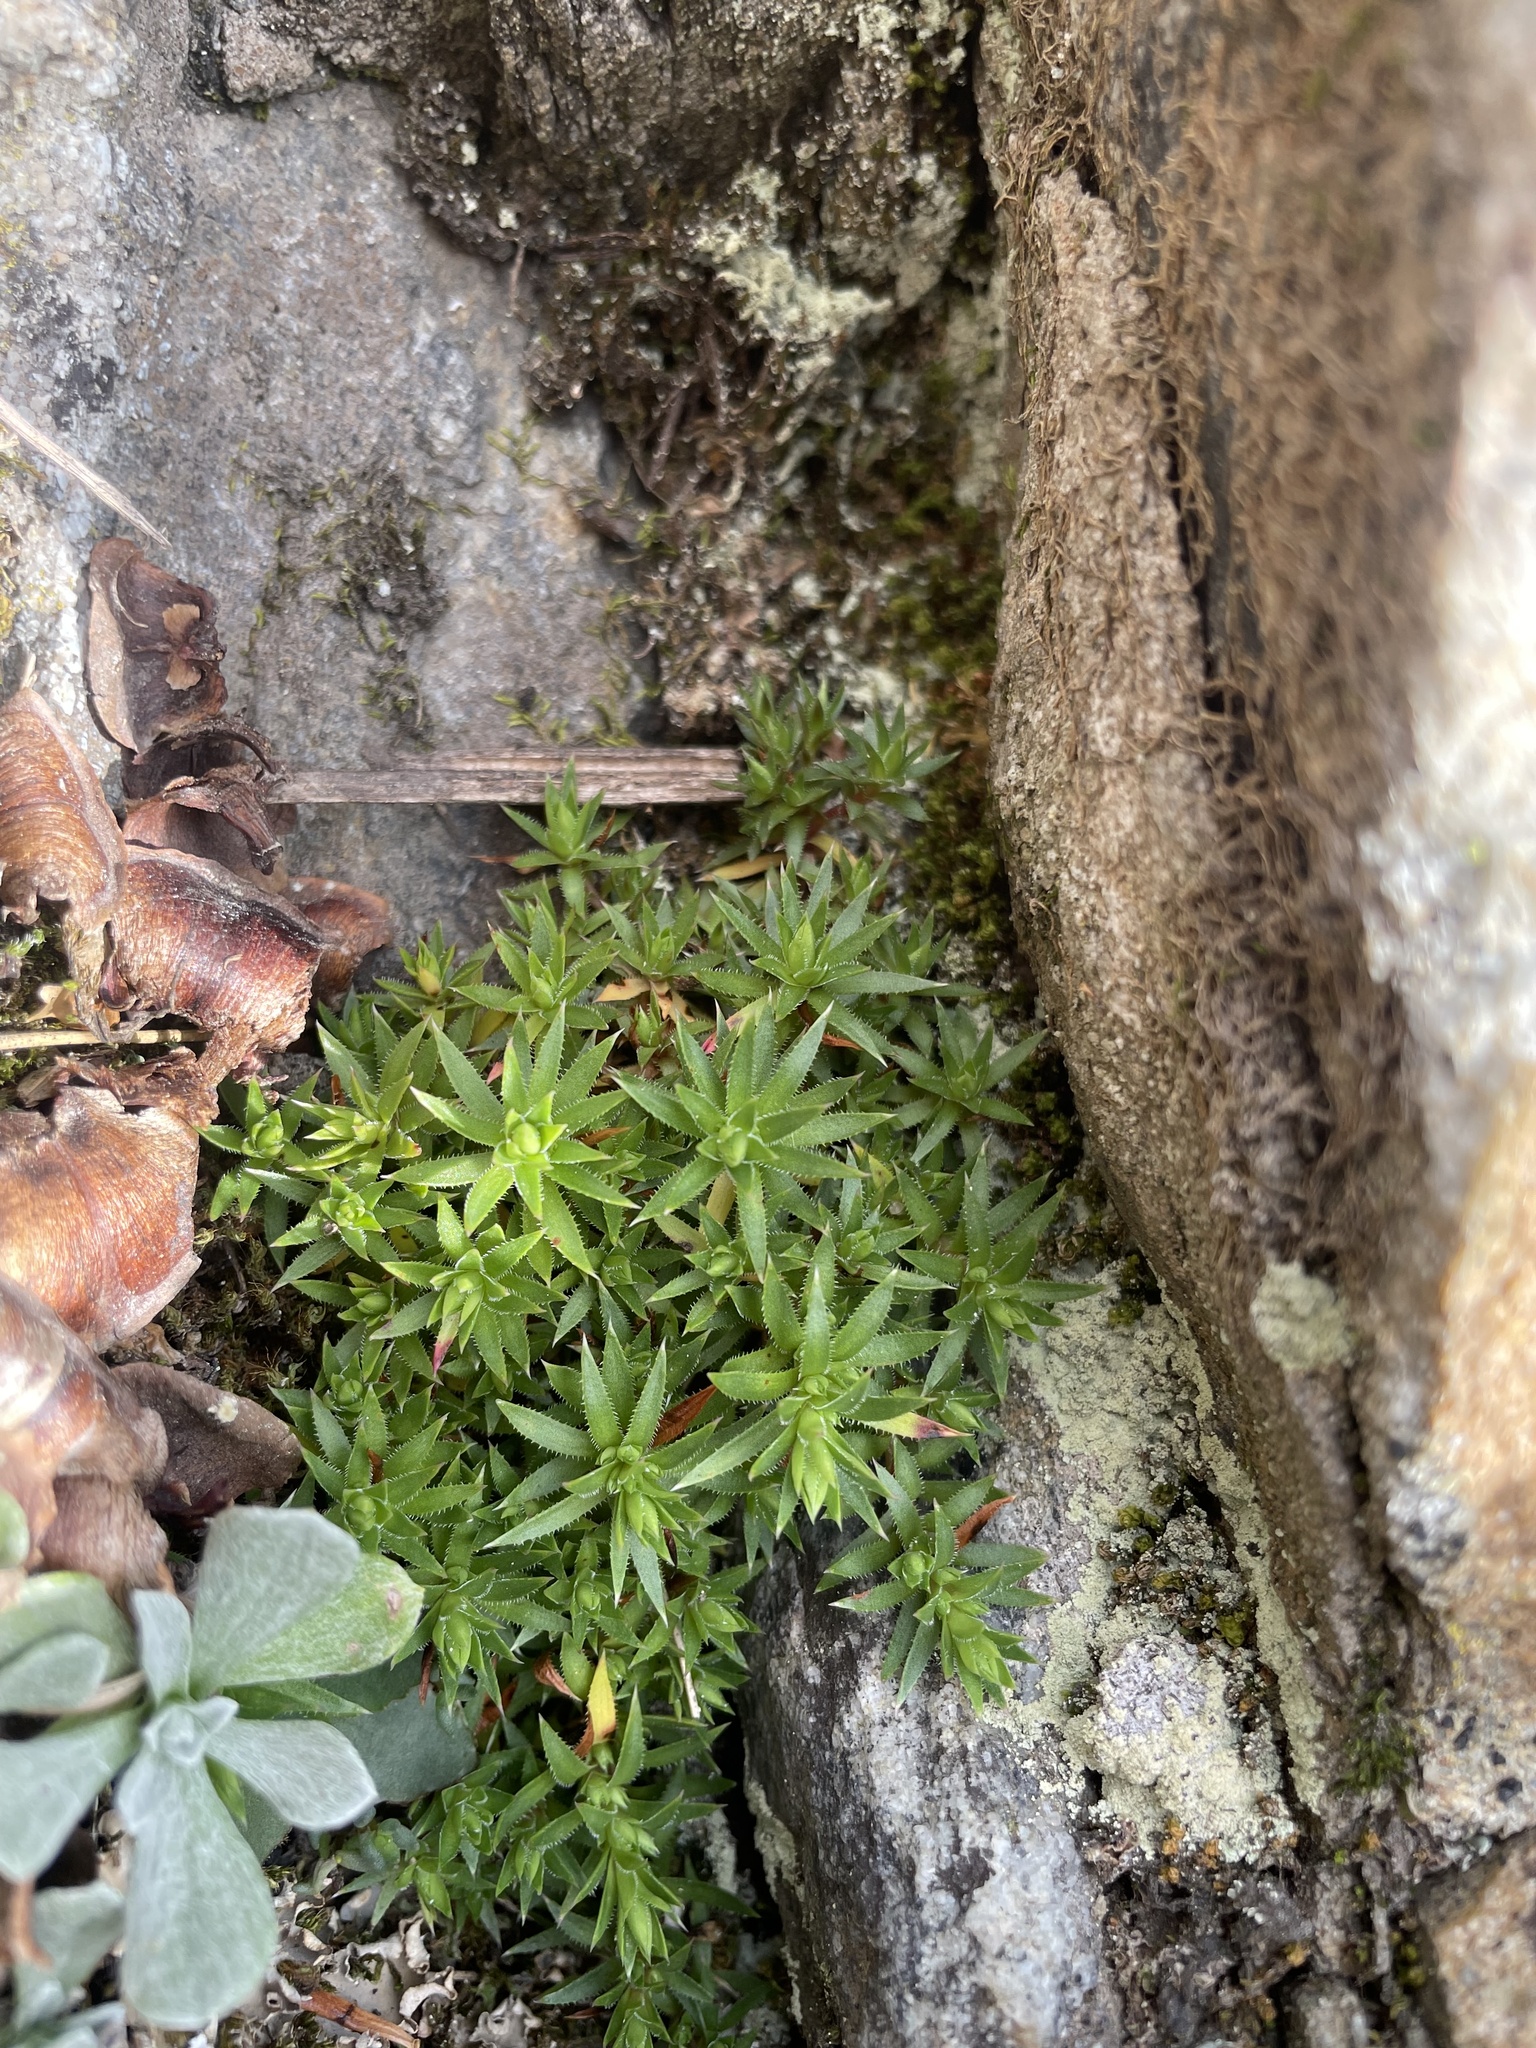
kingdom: Plantae
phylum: Tracheophyta
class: Magnoliopsida
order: Saxifragales
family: Saxifragaceae
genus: Saxifraga
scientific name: Saxifraga bronchialis
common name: Matted saxifrage
